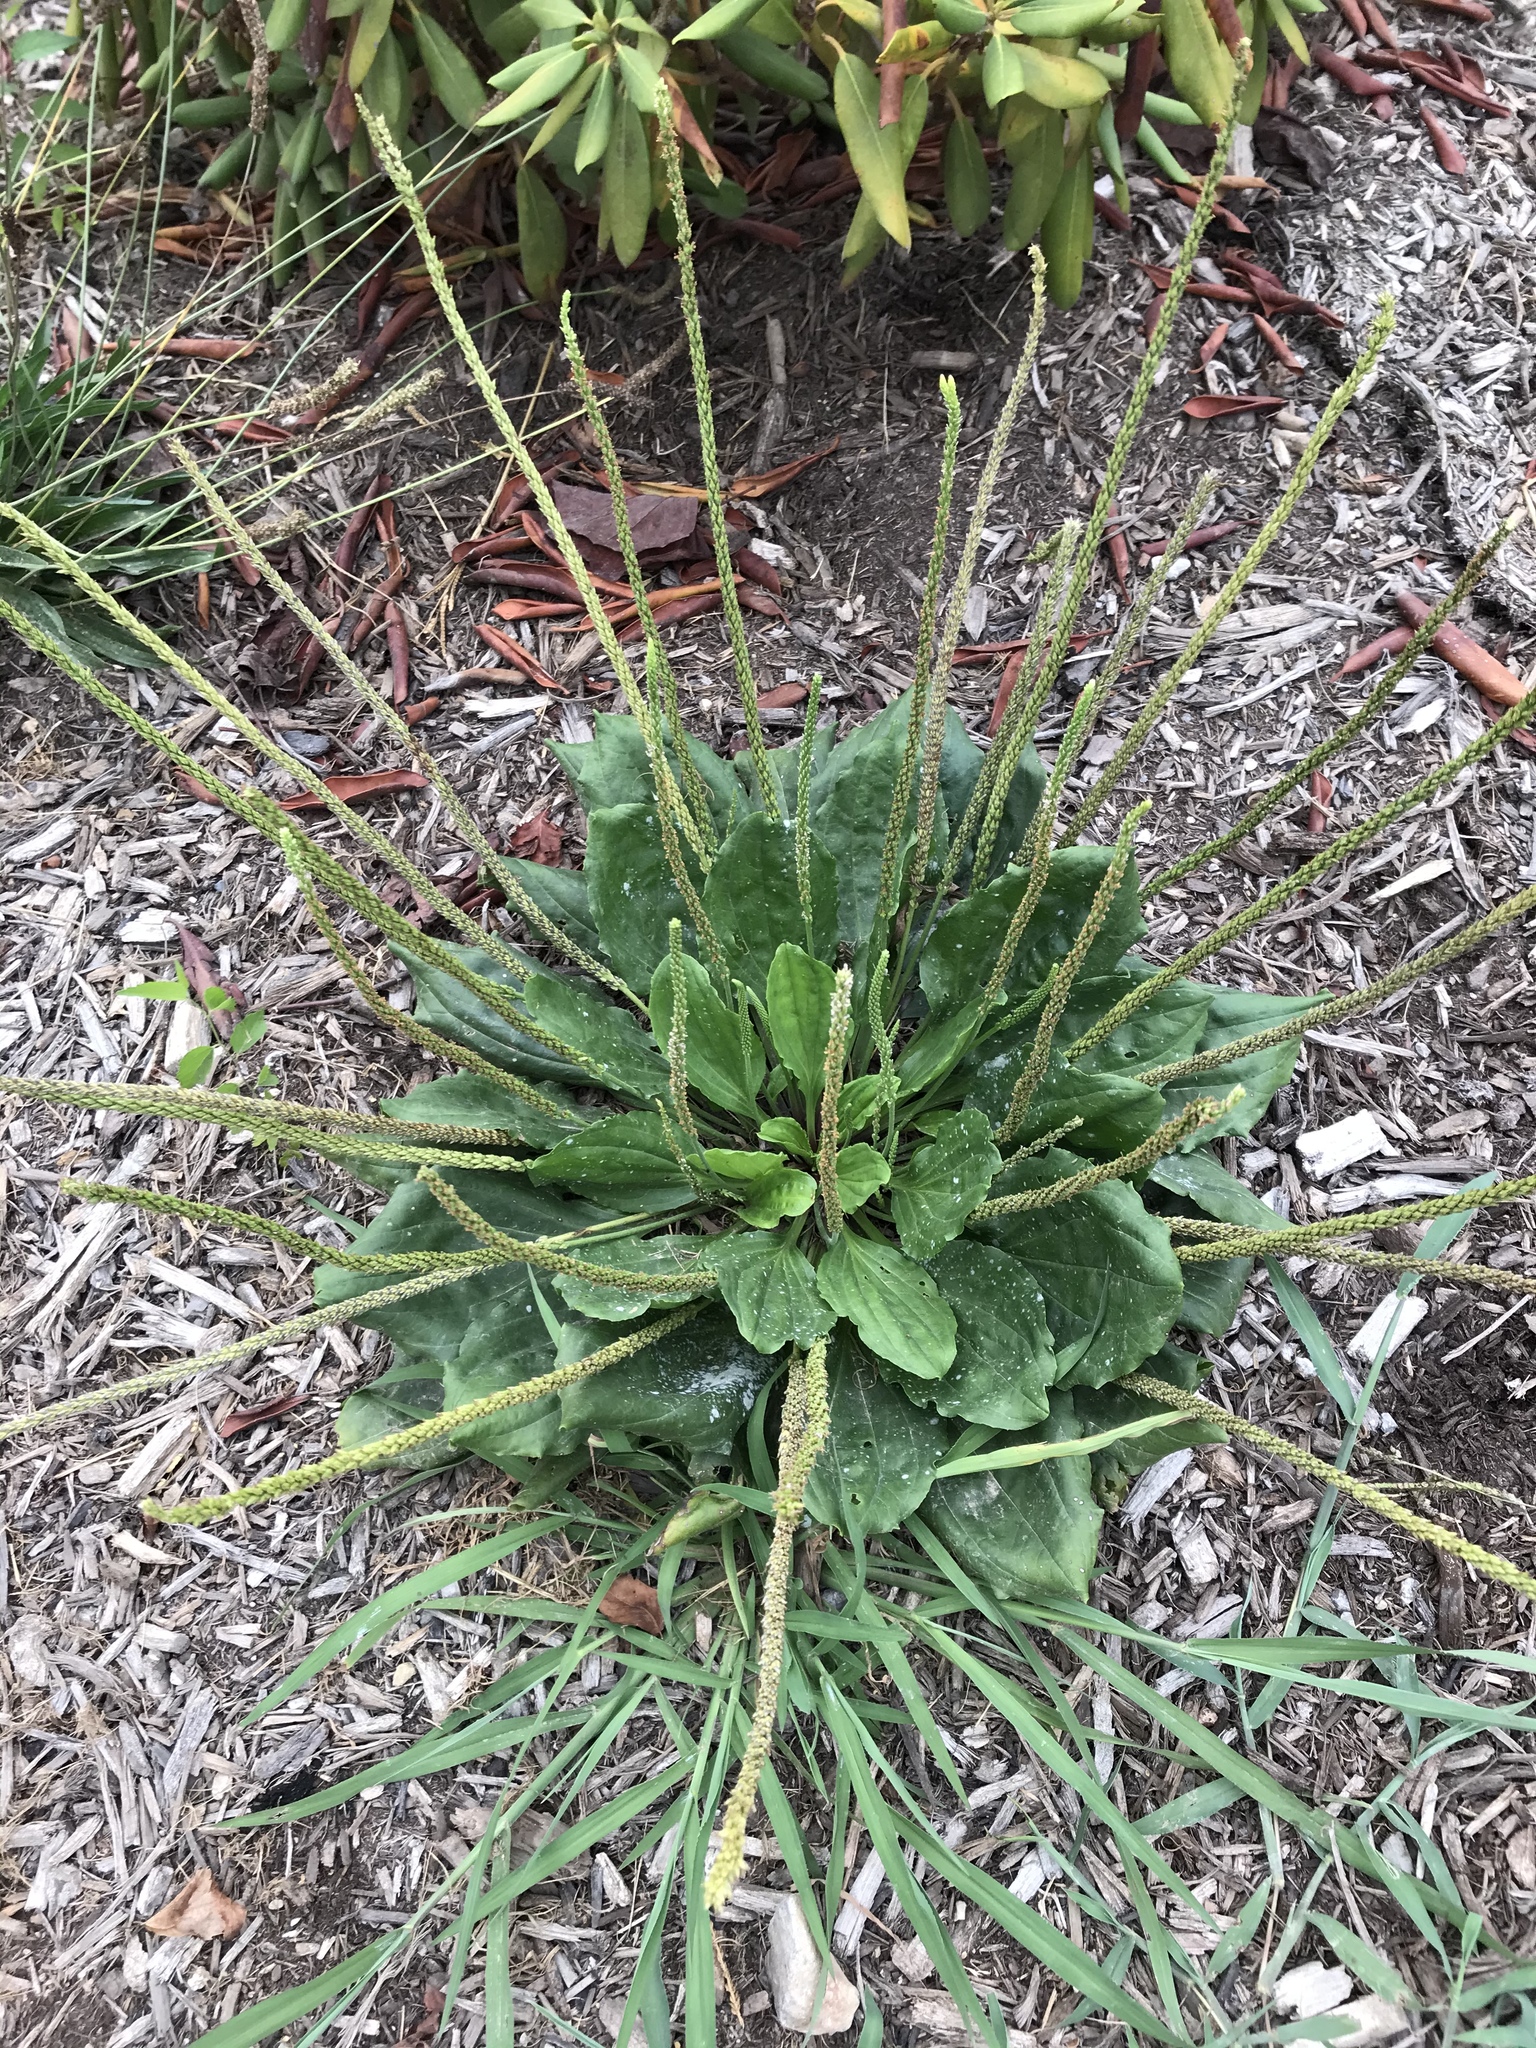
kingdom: Plantae
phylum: Tracheophyta
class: Magnoliopsida
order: Lamiales
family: Plantaginaceae
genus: Plantago
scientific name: Plantago rugelii
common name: American plantain
